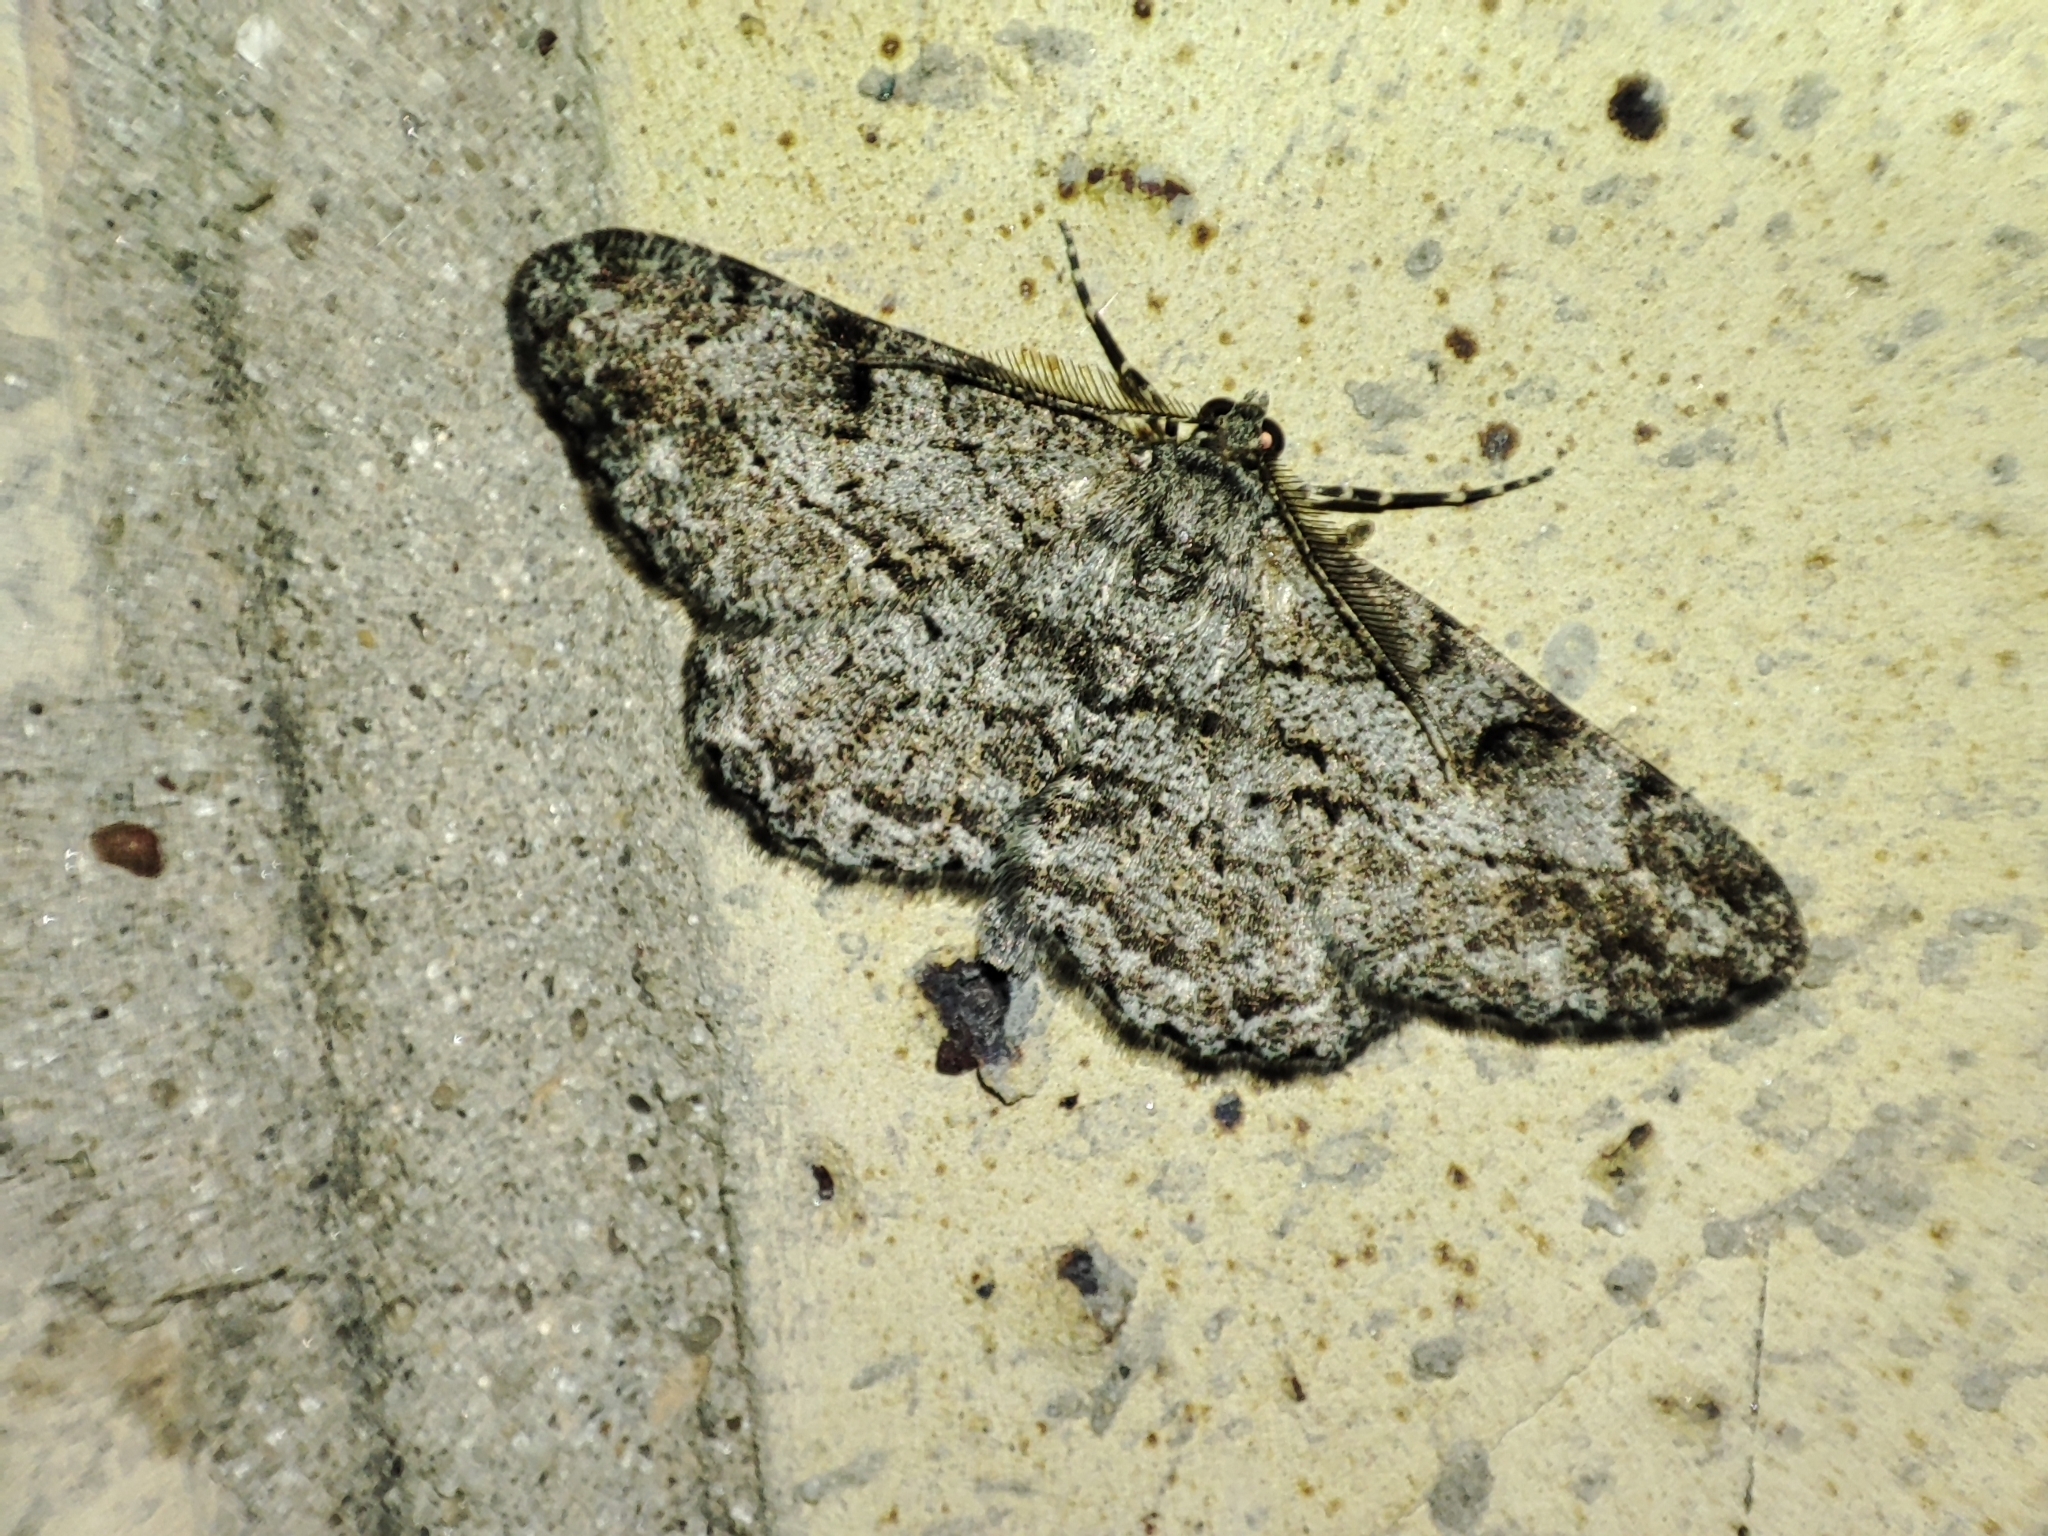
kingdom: Animalia
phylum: Arthropoda
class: Insecta
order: Lepidoptera
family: Geometridae
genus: Peribatodes
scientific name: Peribatodes rhomboidaria
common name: Willow beauty
